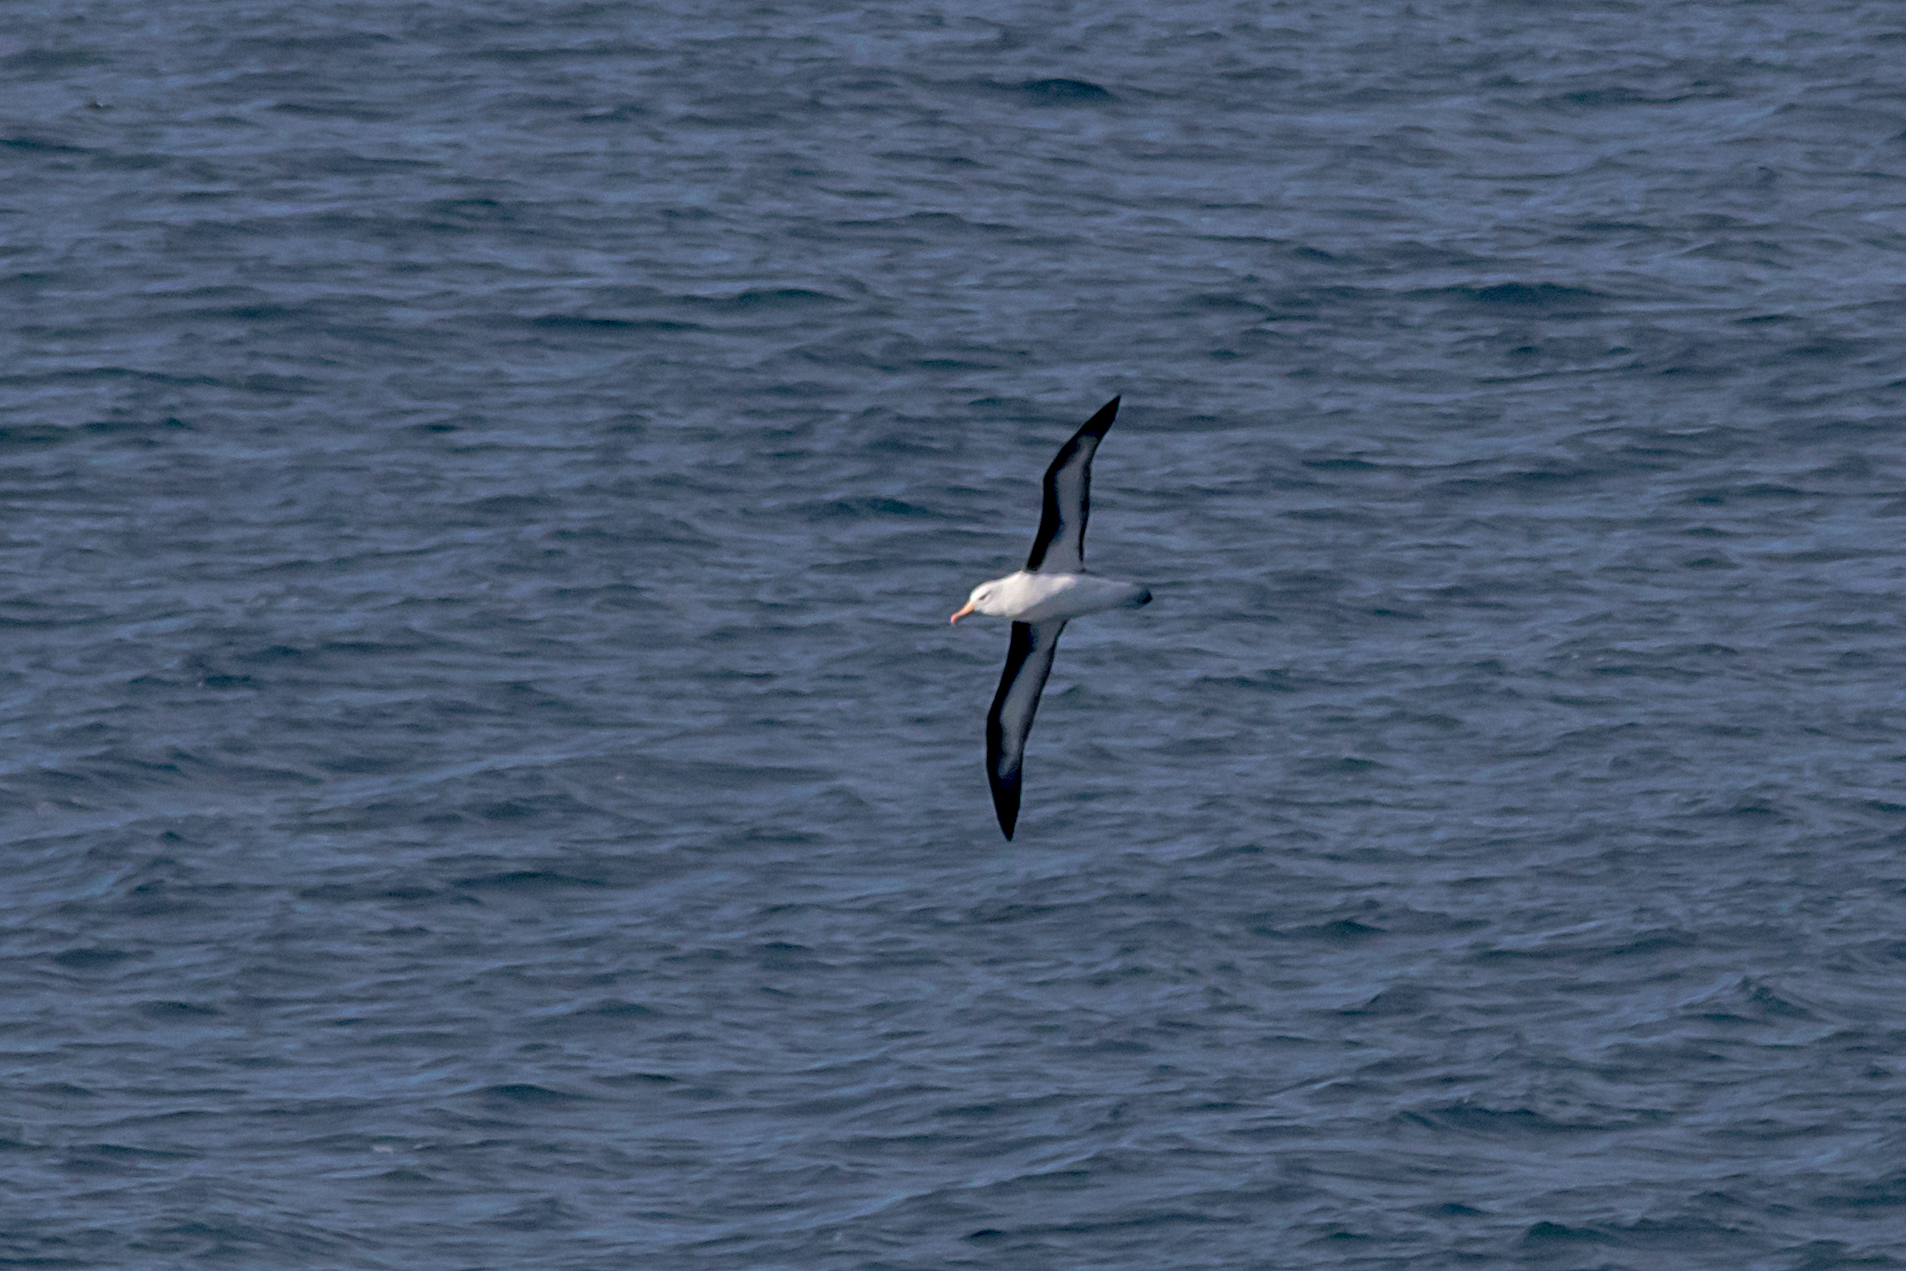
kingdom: Animalia
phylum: Chordata
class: Aves
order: Procellariiformes
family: Diomedeidae
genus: Thalassarche
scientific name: Thalassarche melanophris
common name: Black-browed albatross
